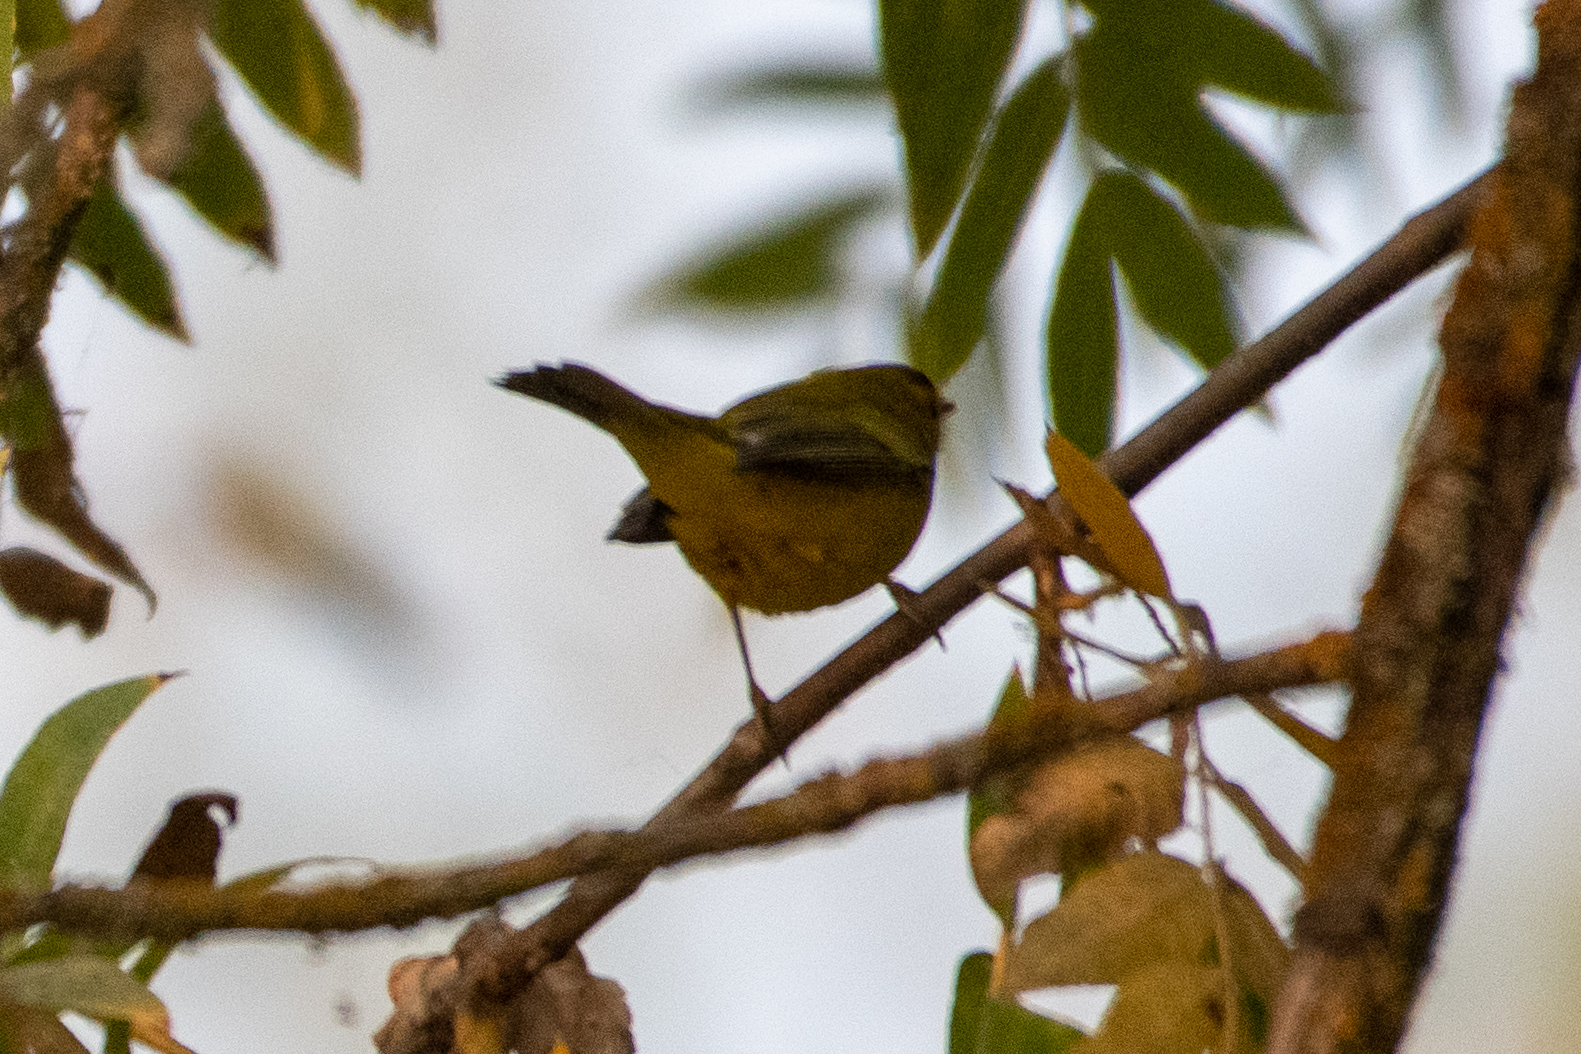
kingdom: Animalia
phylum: Chordata
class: Aves
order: Passeriformes
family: Parulidae
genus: Cardellina
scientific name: Cardellina pusilla
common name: Wilson's warbler
